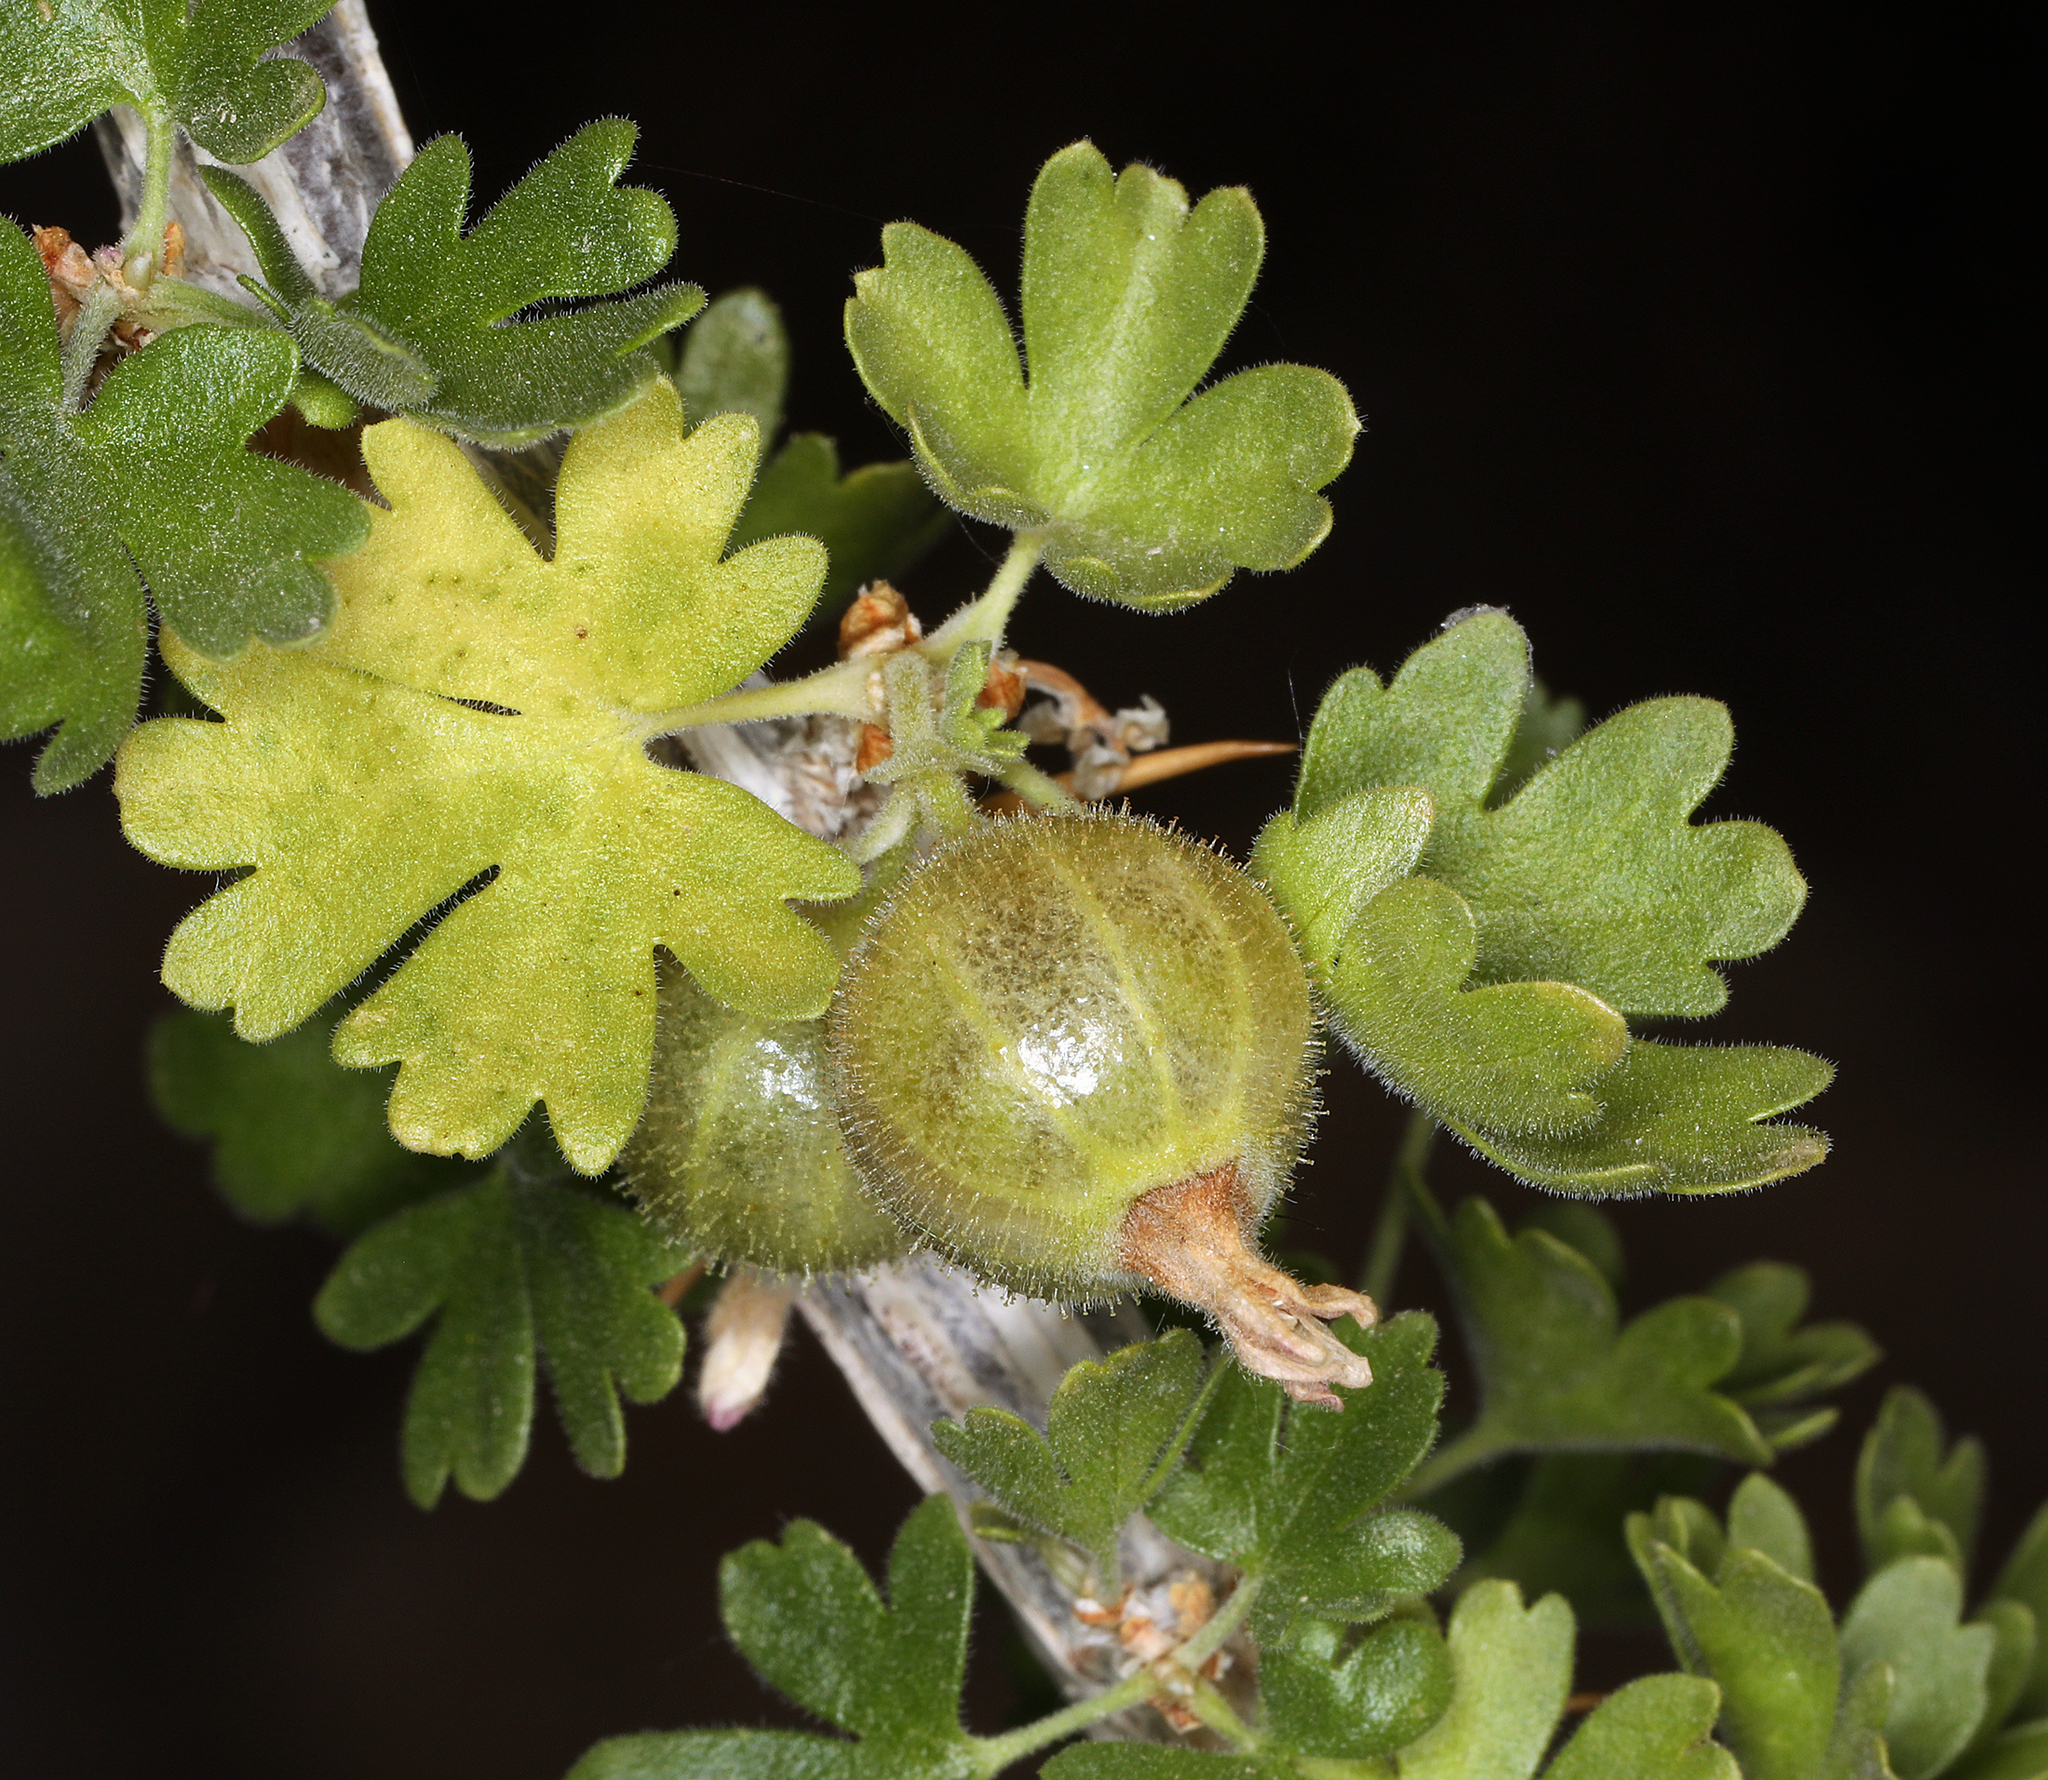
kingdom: Plantae
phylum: Tracheophyta
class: Magnoliopsida
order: Saxifragales
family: Grossulariaceae
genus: Ribes
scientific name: Ribes velutinum
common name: Desert gooseberry
